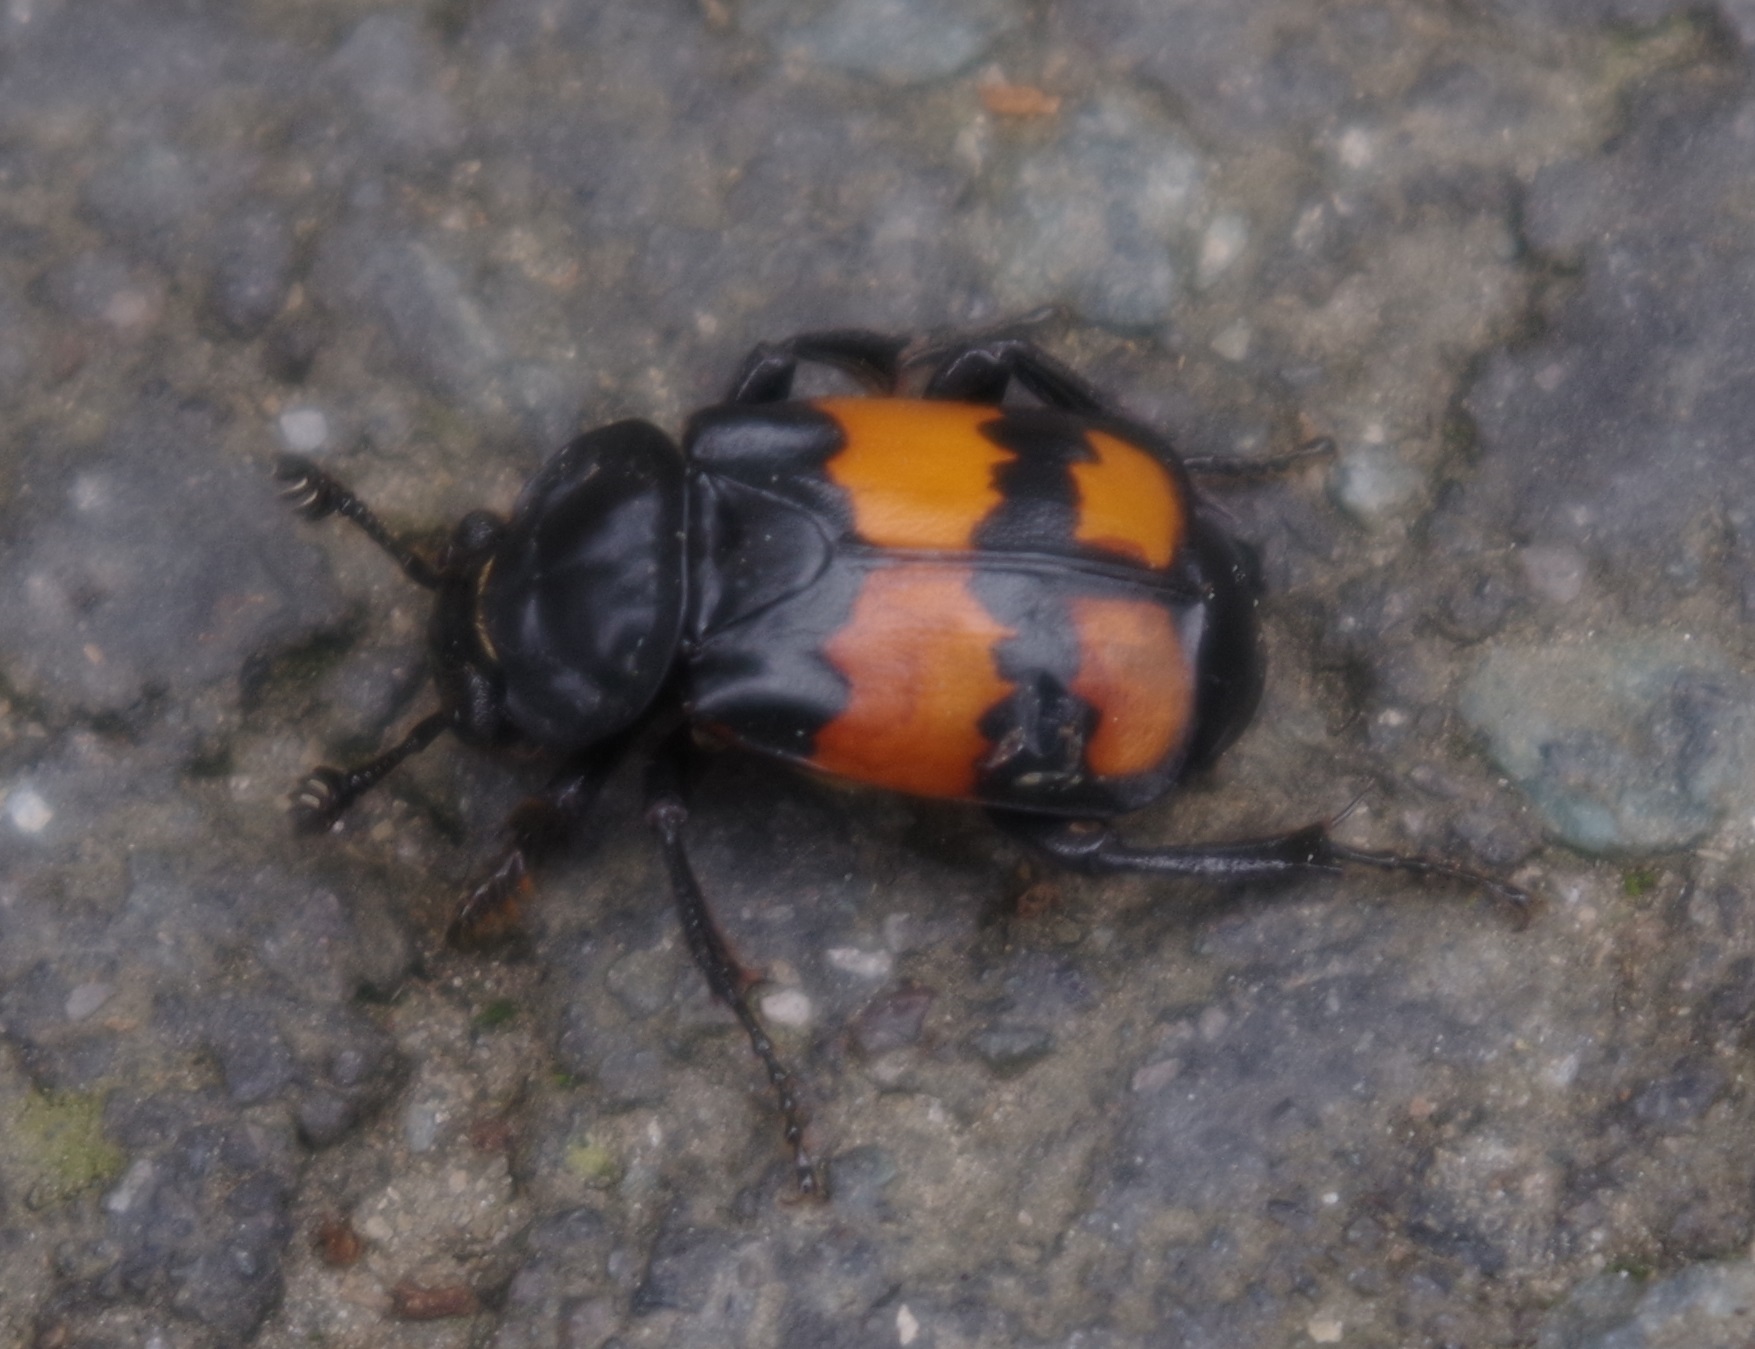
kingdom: Animalia
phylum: Arthropoda
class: Insecta
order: Coleoptera
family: Staphylinidae
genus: Nicrophorus
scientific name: Nicrophorus vespilloides
